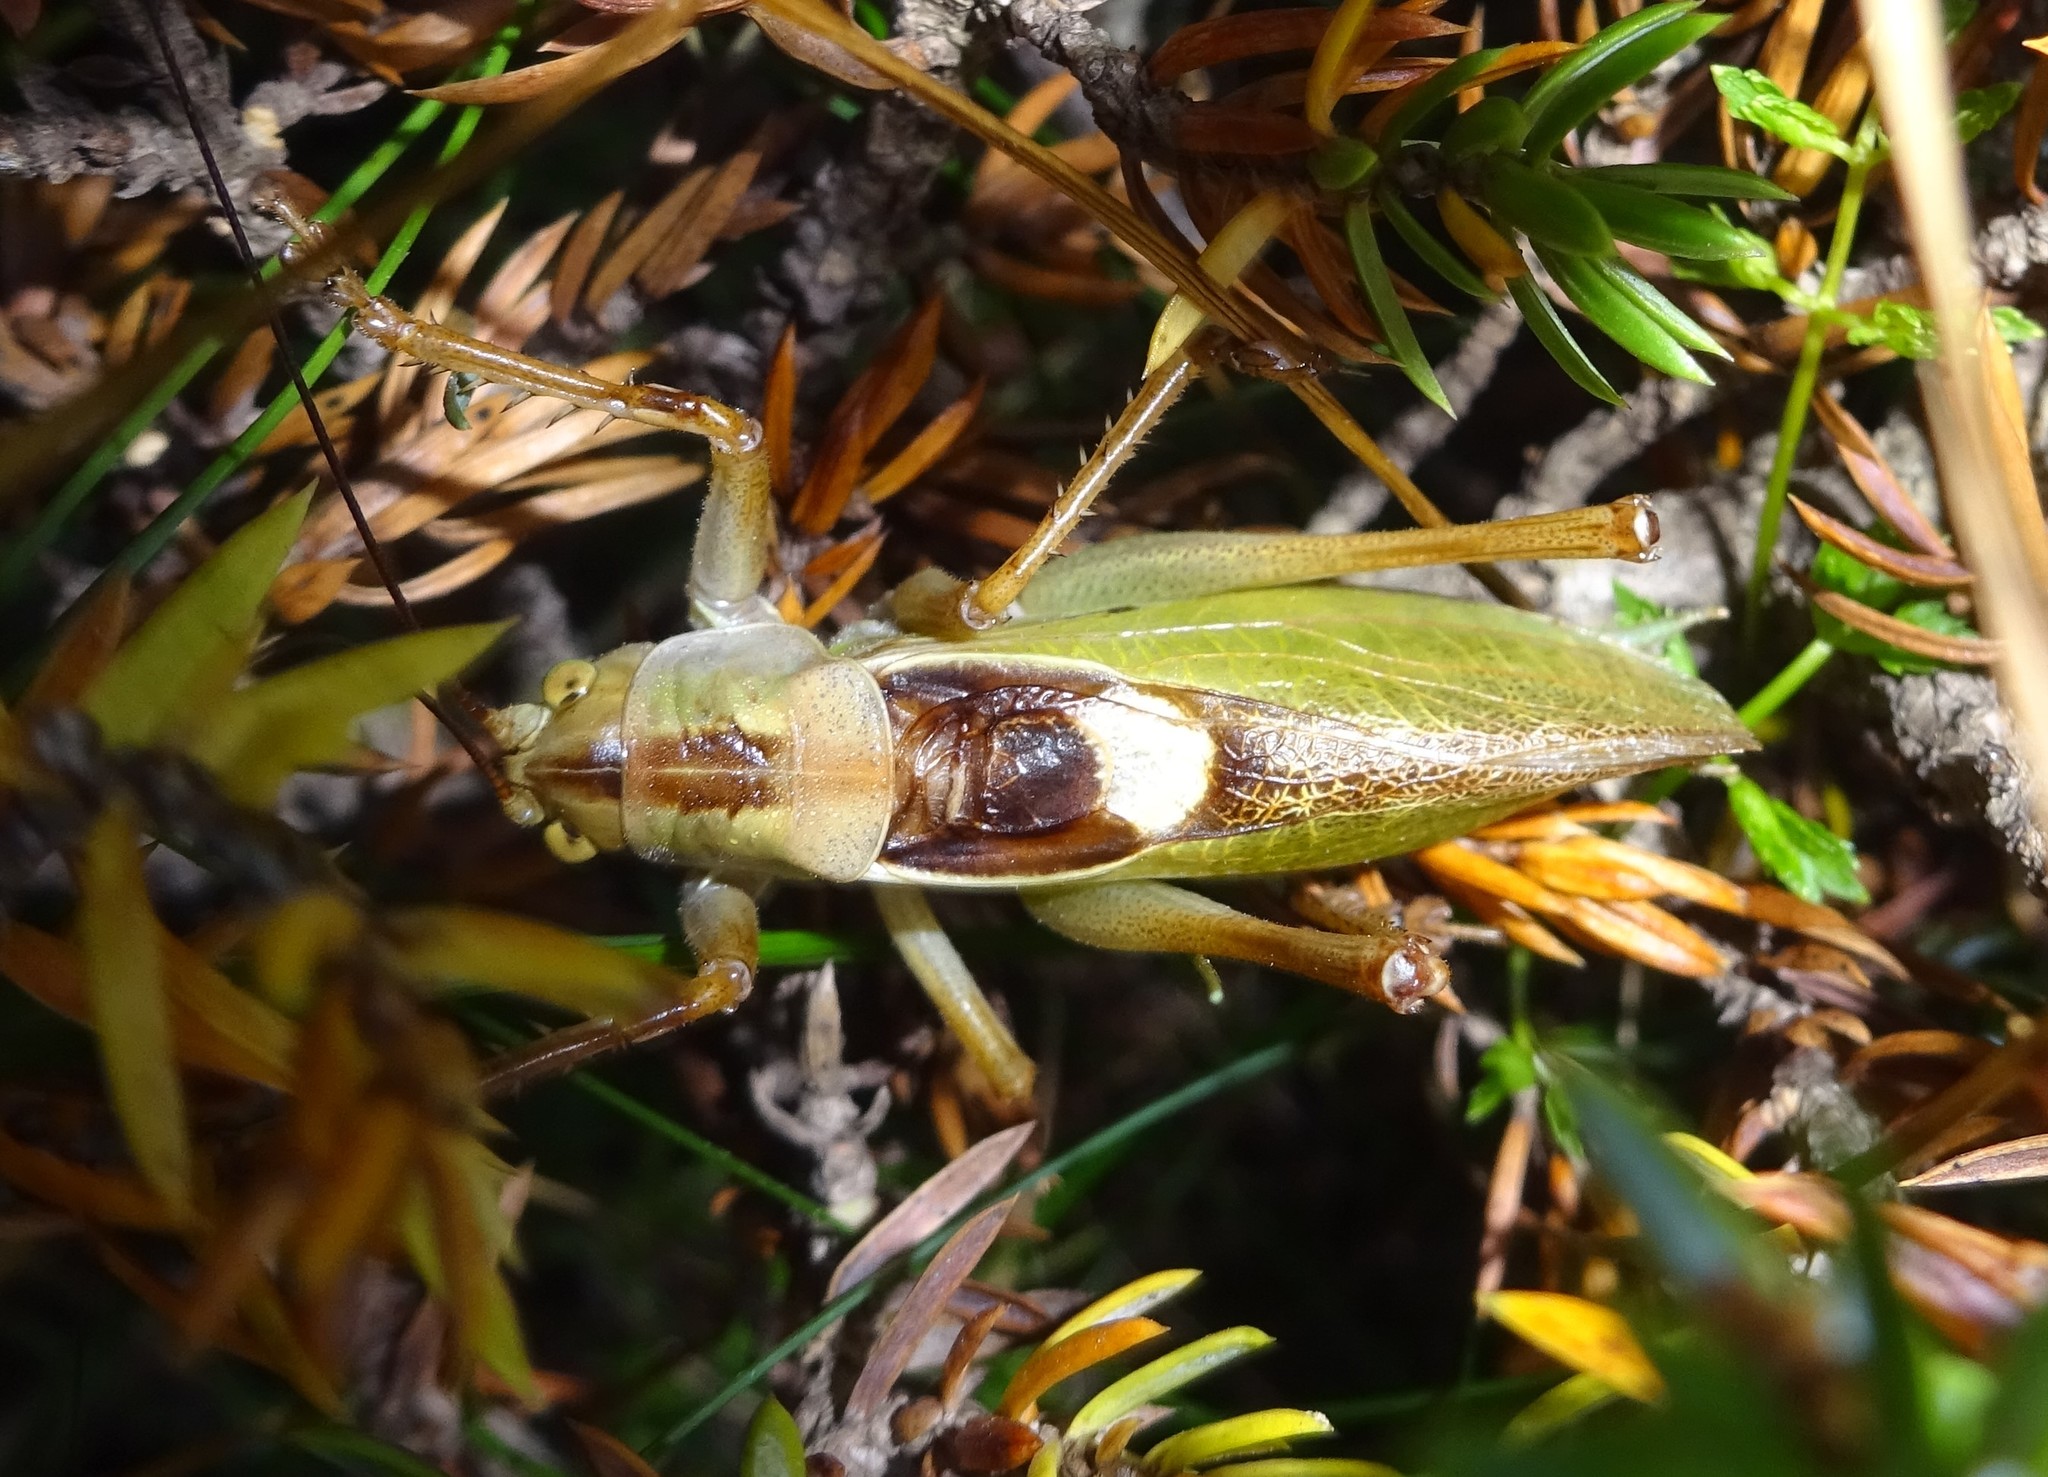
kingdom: Animalia
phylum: Arthropoda
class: Insecta
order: Orthoptera
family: Tettigoniidae
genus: Tettigonia
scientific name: Tettigonia cantans
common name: Upland green bush-cricket
